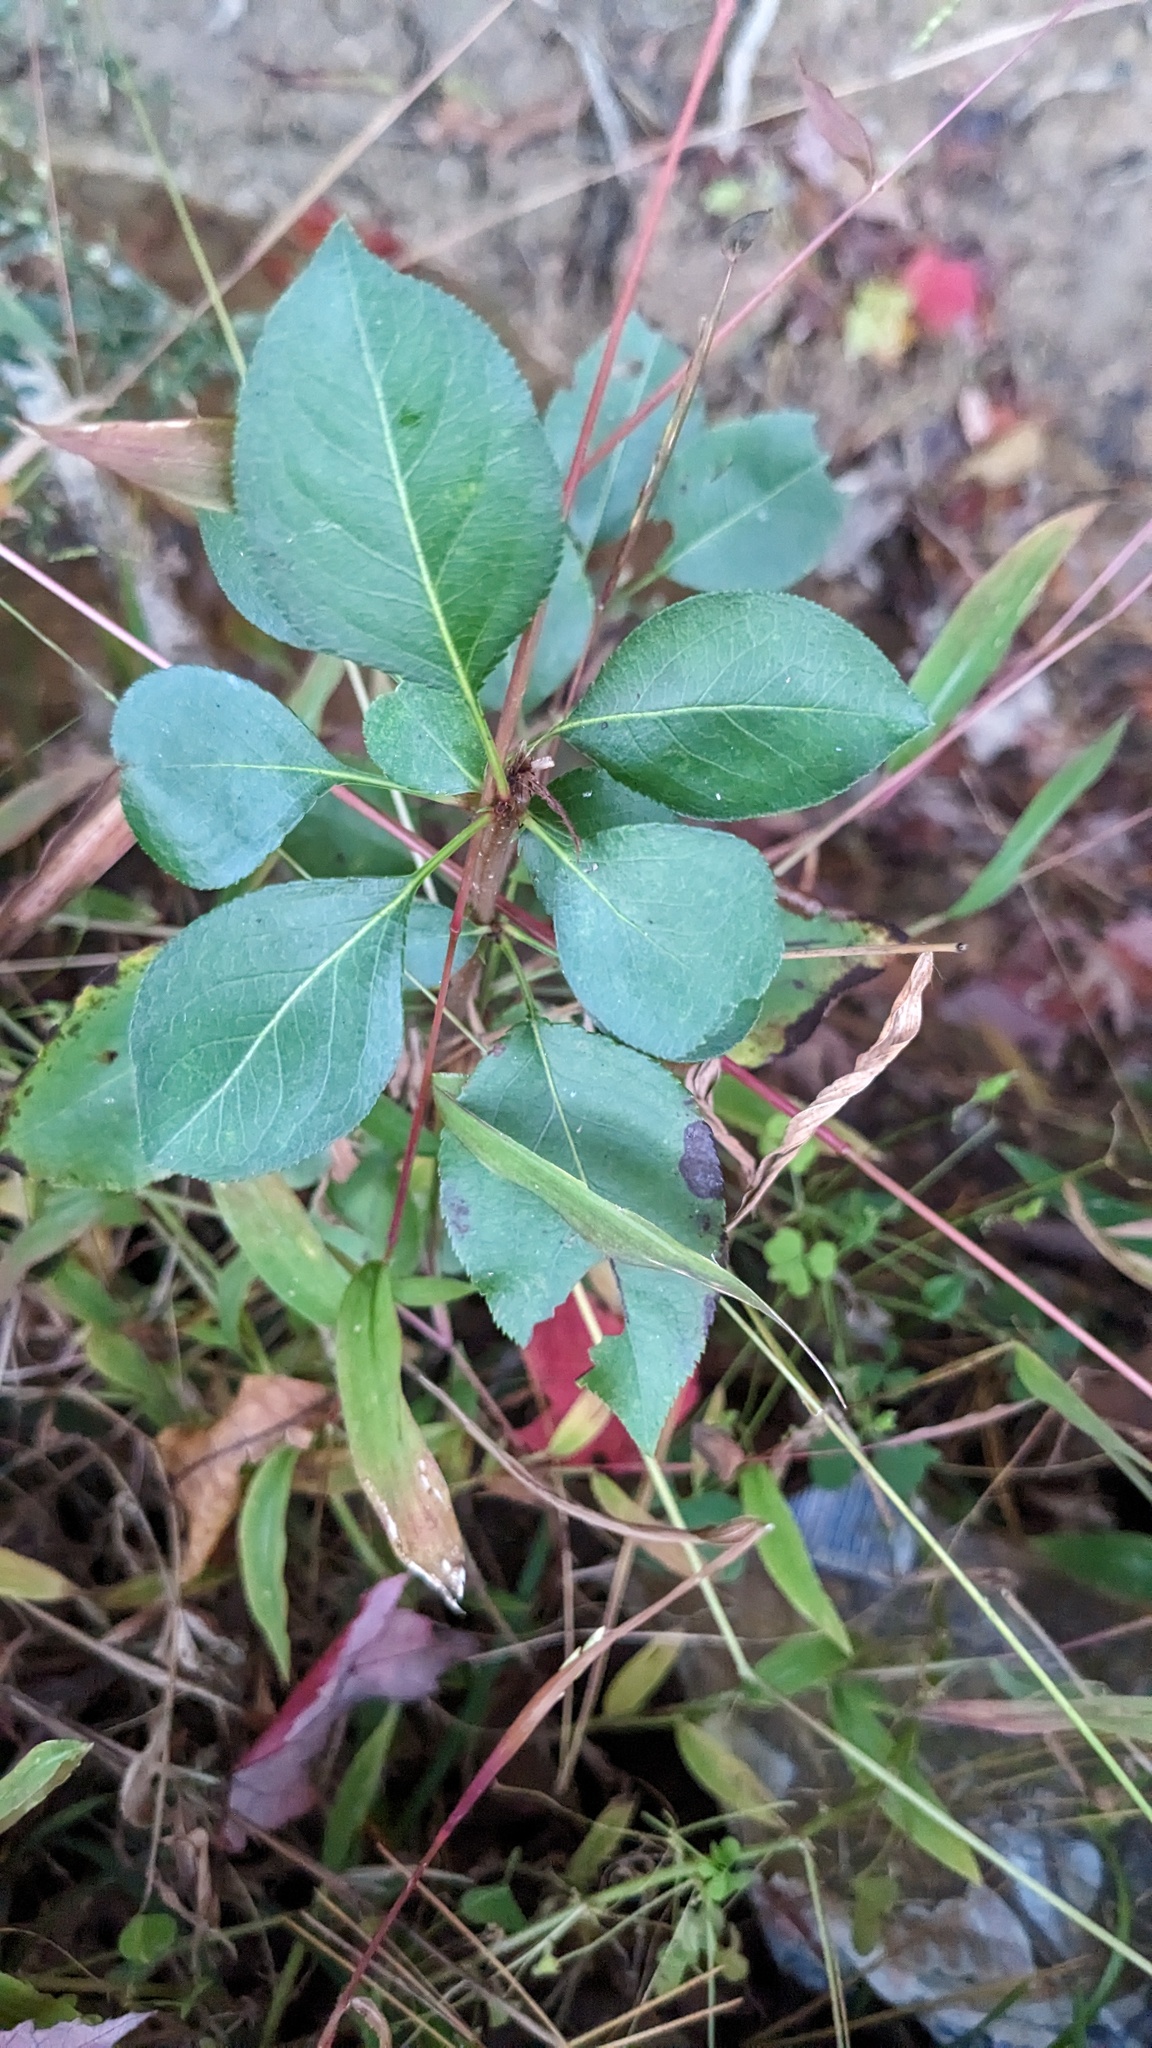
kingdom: Plantae
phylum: Tracheophyta
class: Magnoliopsida
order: Rosales
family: Rosaceae
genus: Pyrus
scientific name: Pyrus calleryana
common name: Callery pear
